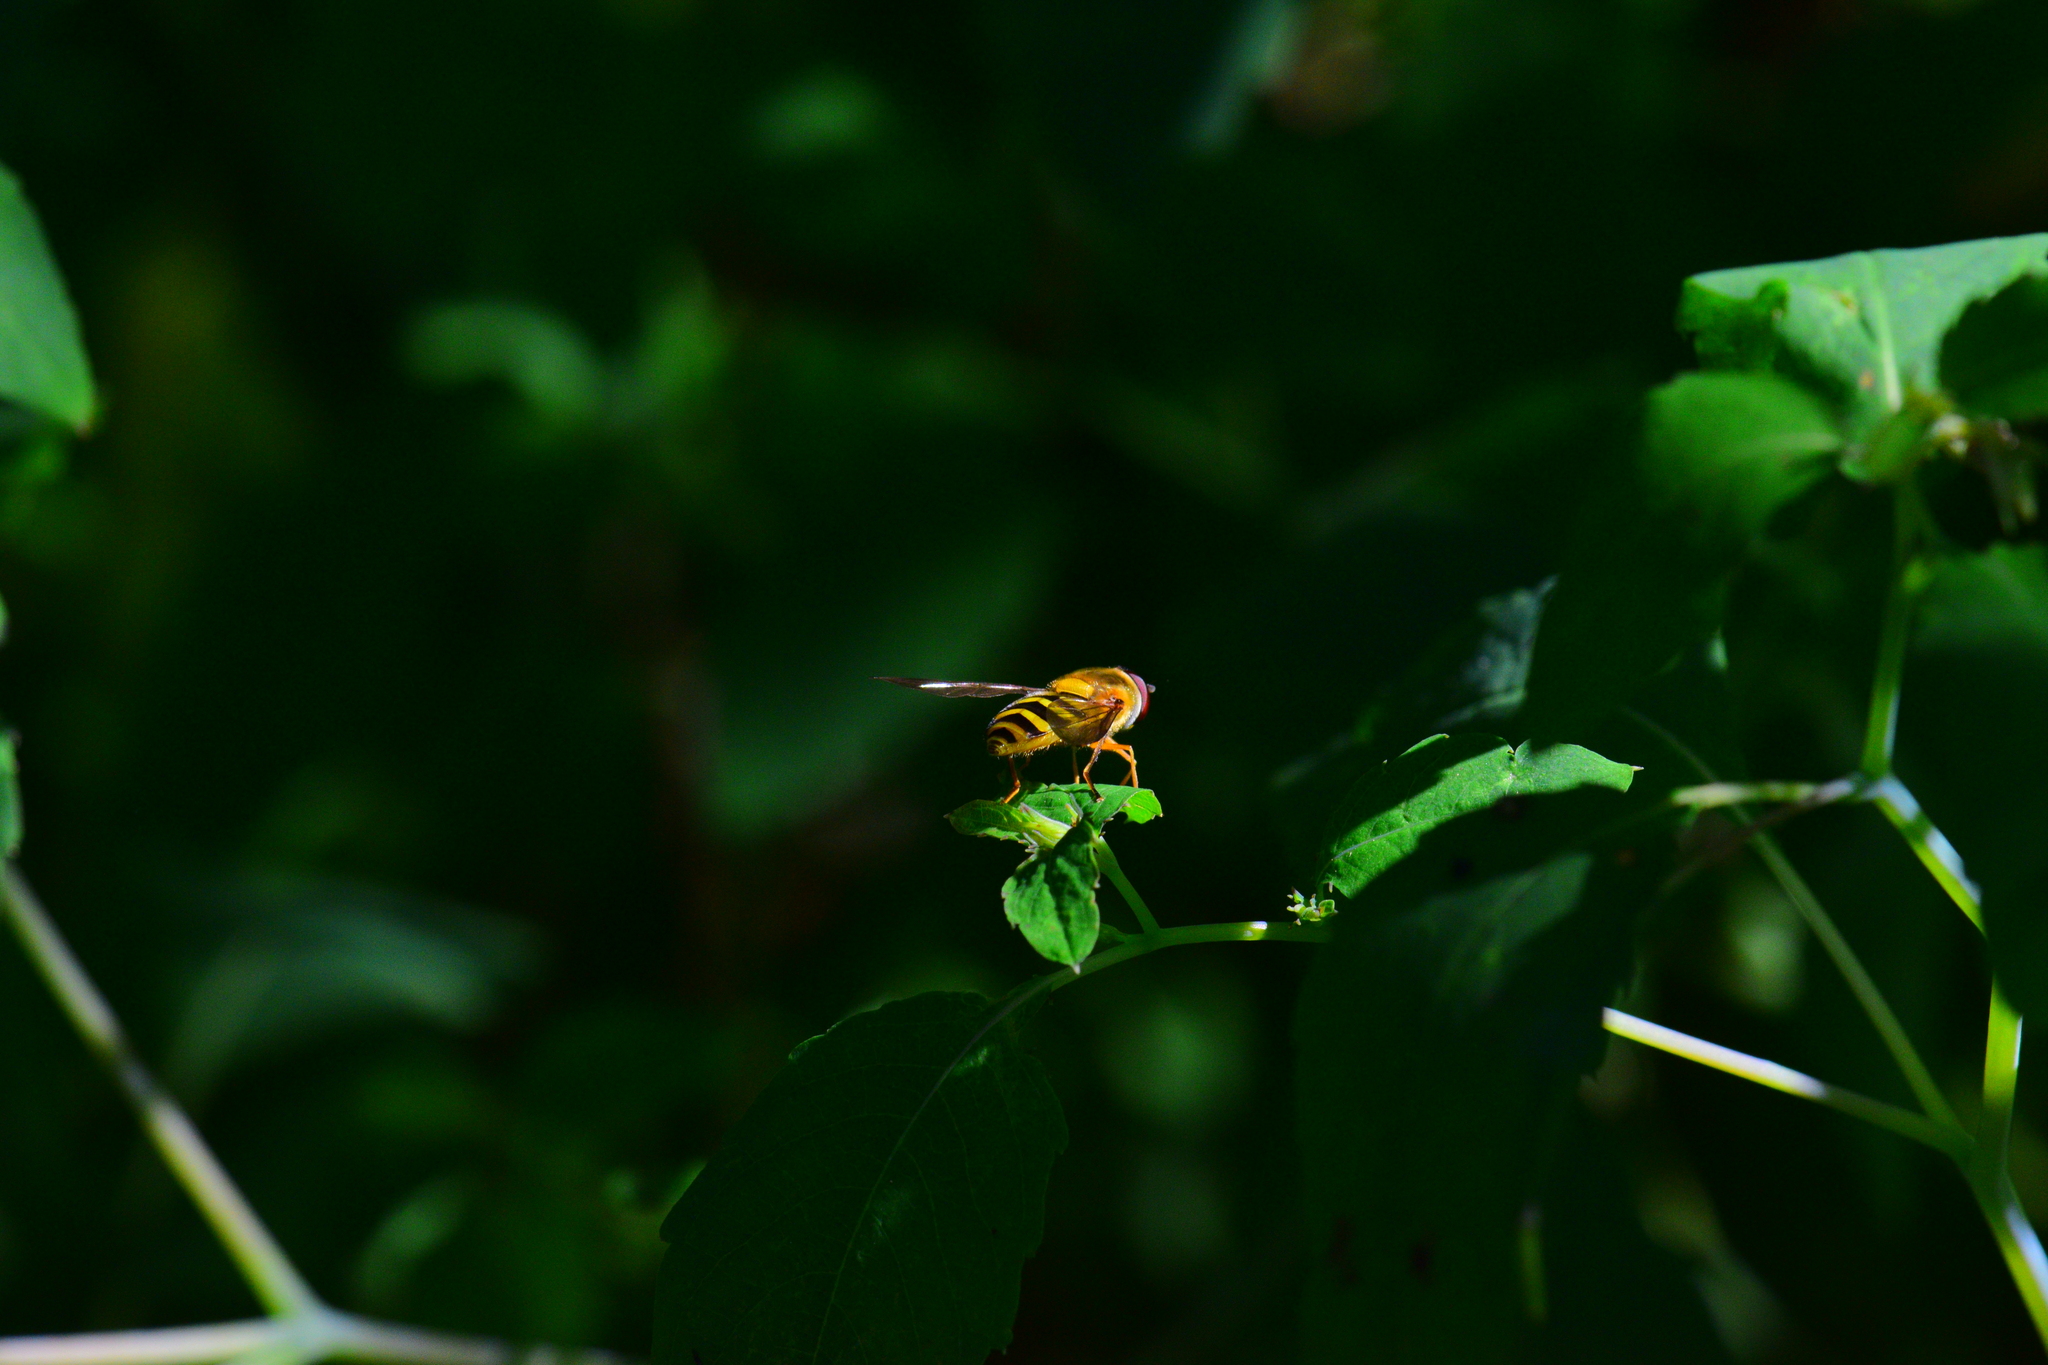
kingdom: Animalia
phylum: Arthropoda
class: Insecta
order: Diptera
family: Syrphidae
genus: Syrphus
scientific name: Syrphus
